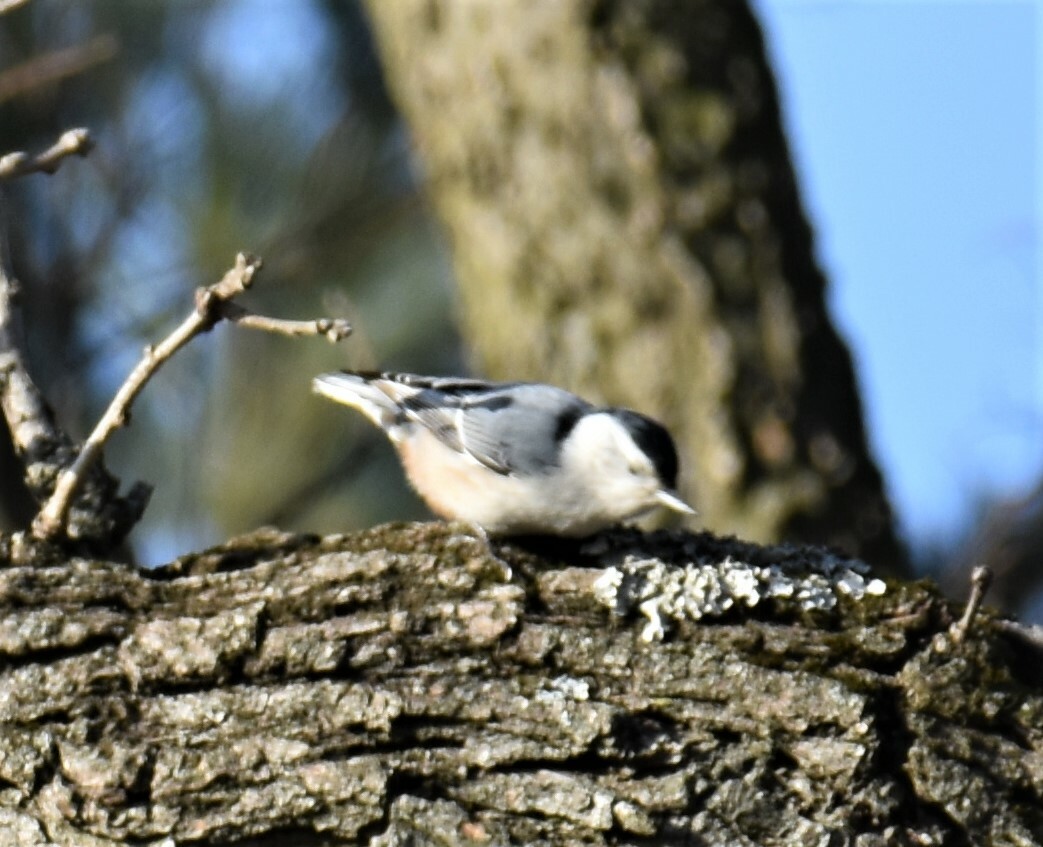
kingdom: Animalia
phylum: Chordata
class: Aves
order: Passeriformes
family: Sittidae
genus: Sitta
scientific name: Sitta carolinensis
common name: White-breasted nuthatch
